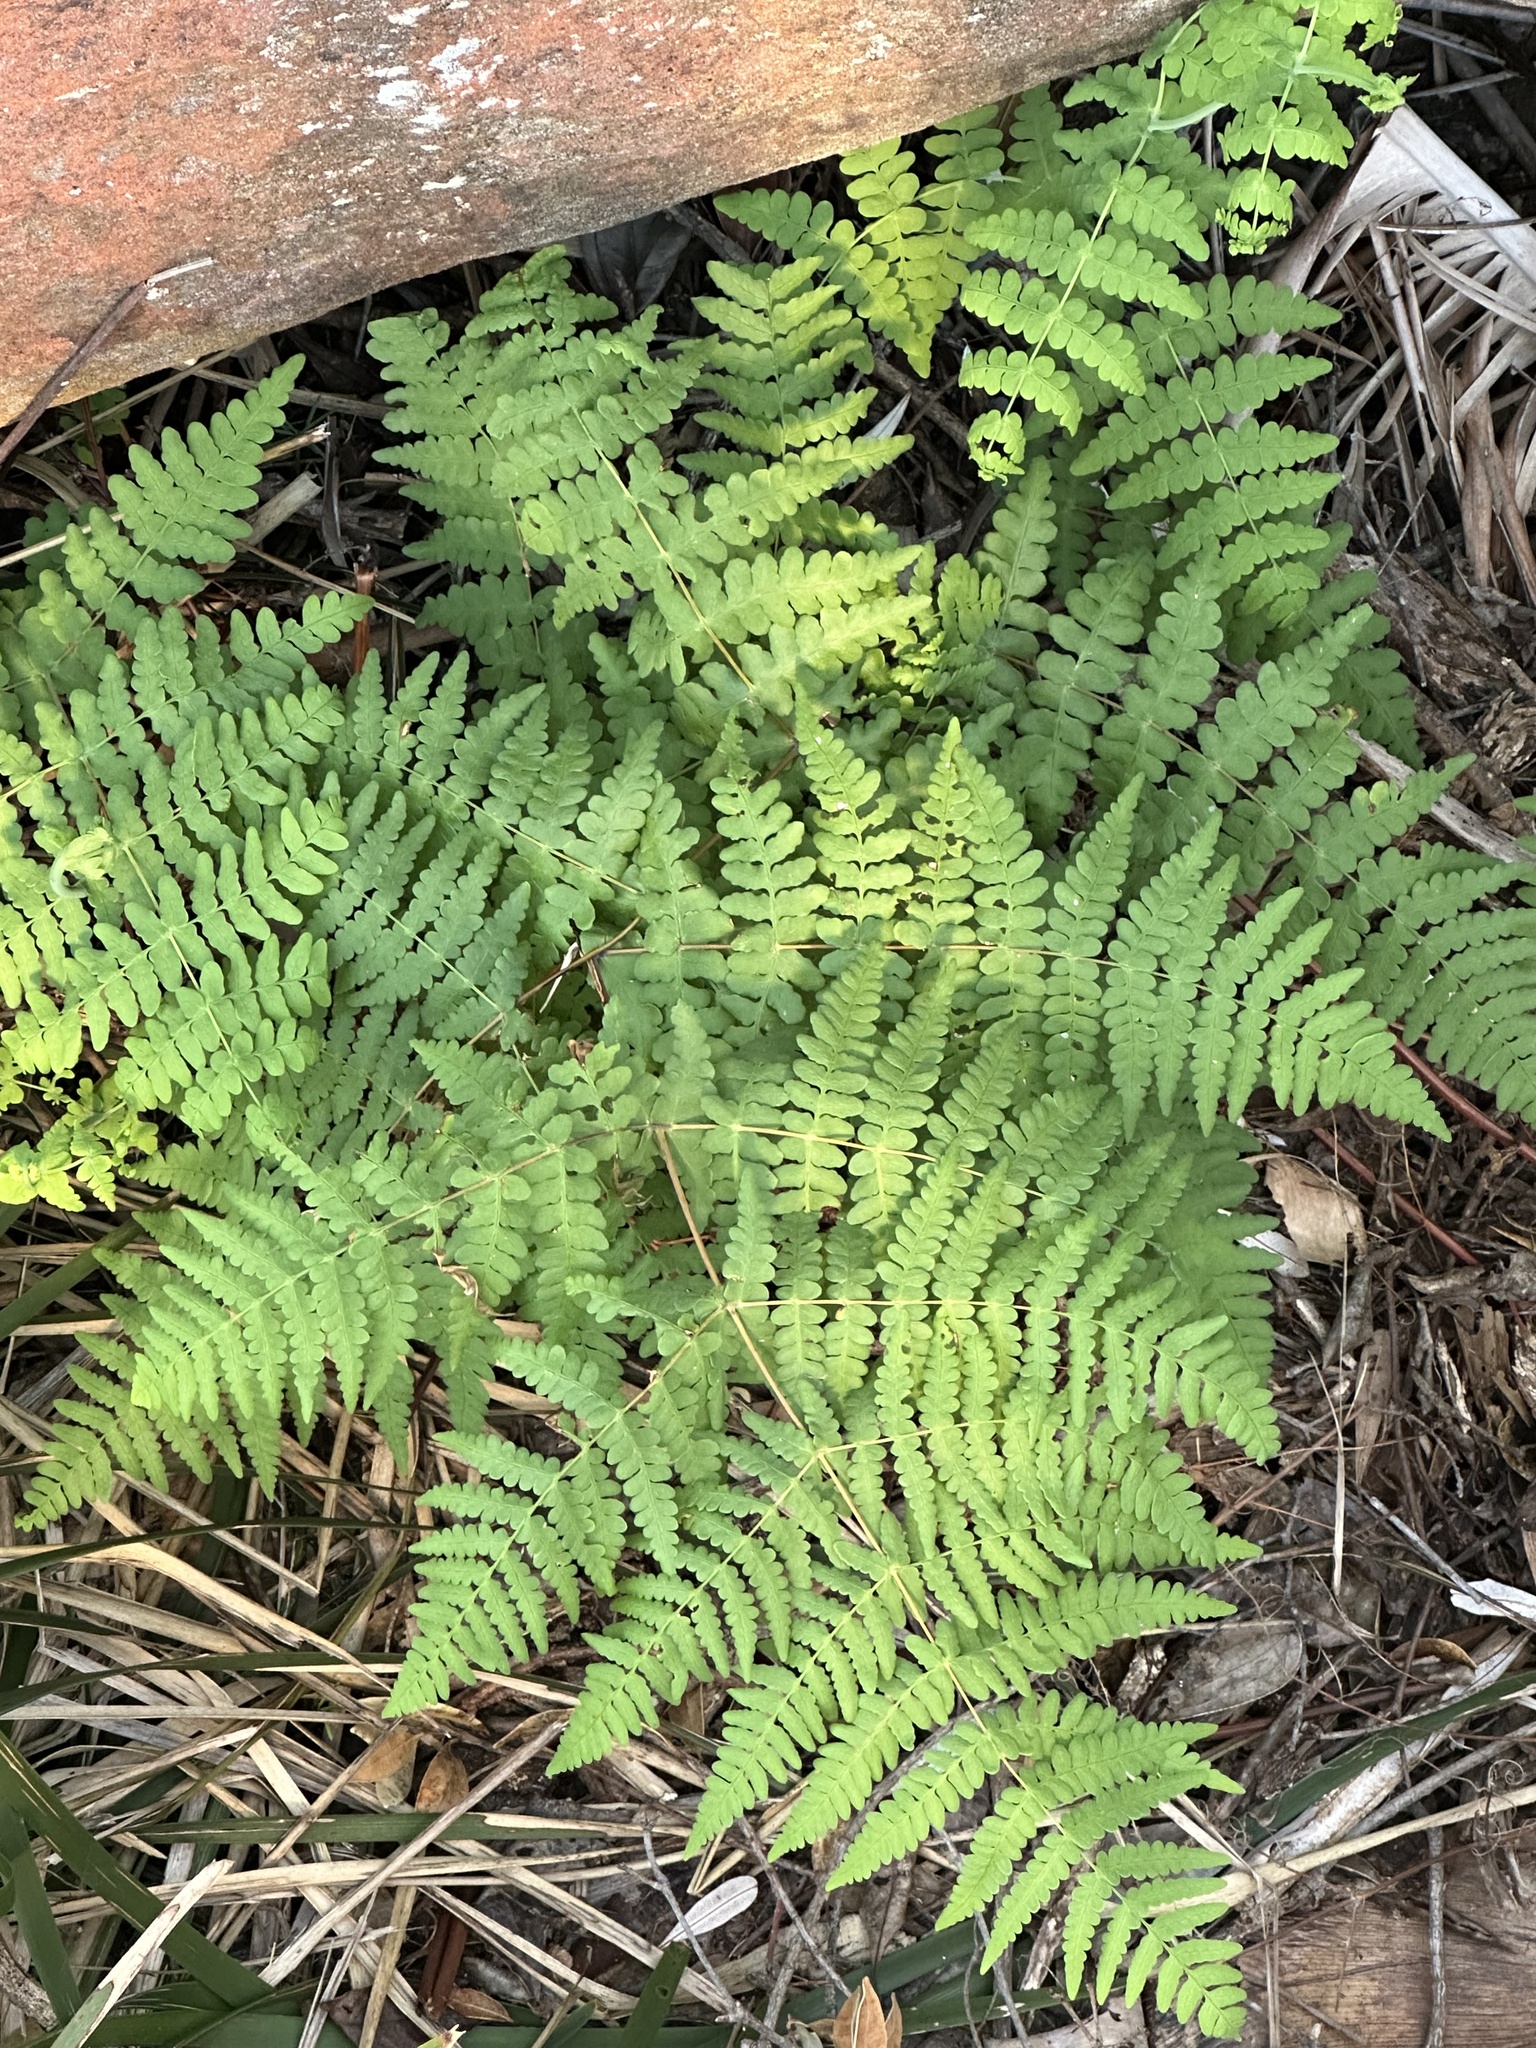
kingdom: Plantae
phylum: Tracheophyta
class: Polypodiopsida
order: Polypodiales
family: Dennstaedtiaceae
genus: Histiopteris
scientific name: Histiopteris incisa
